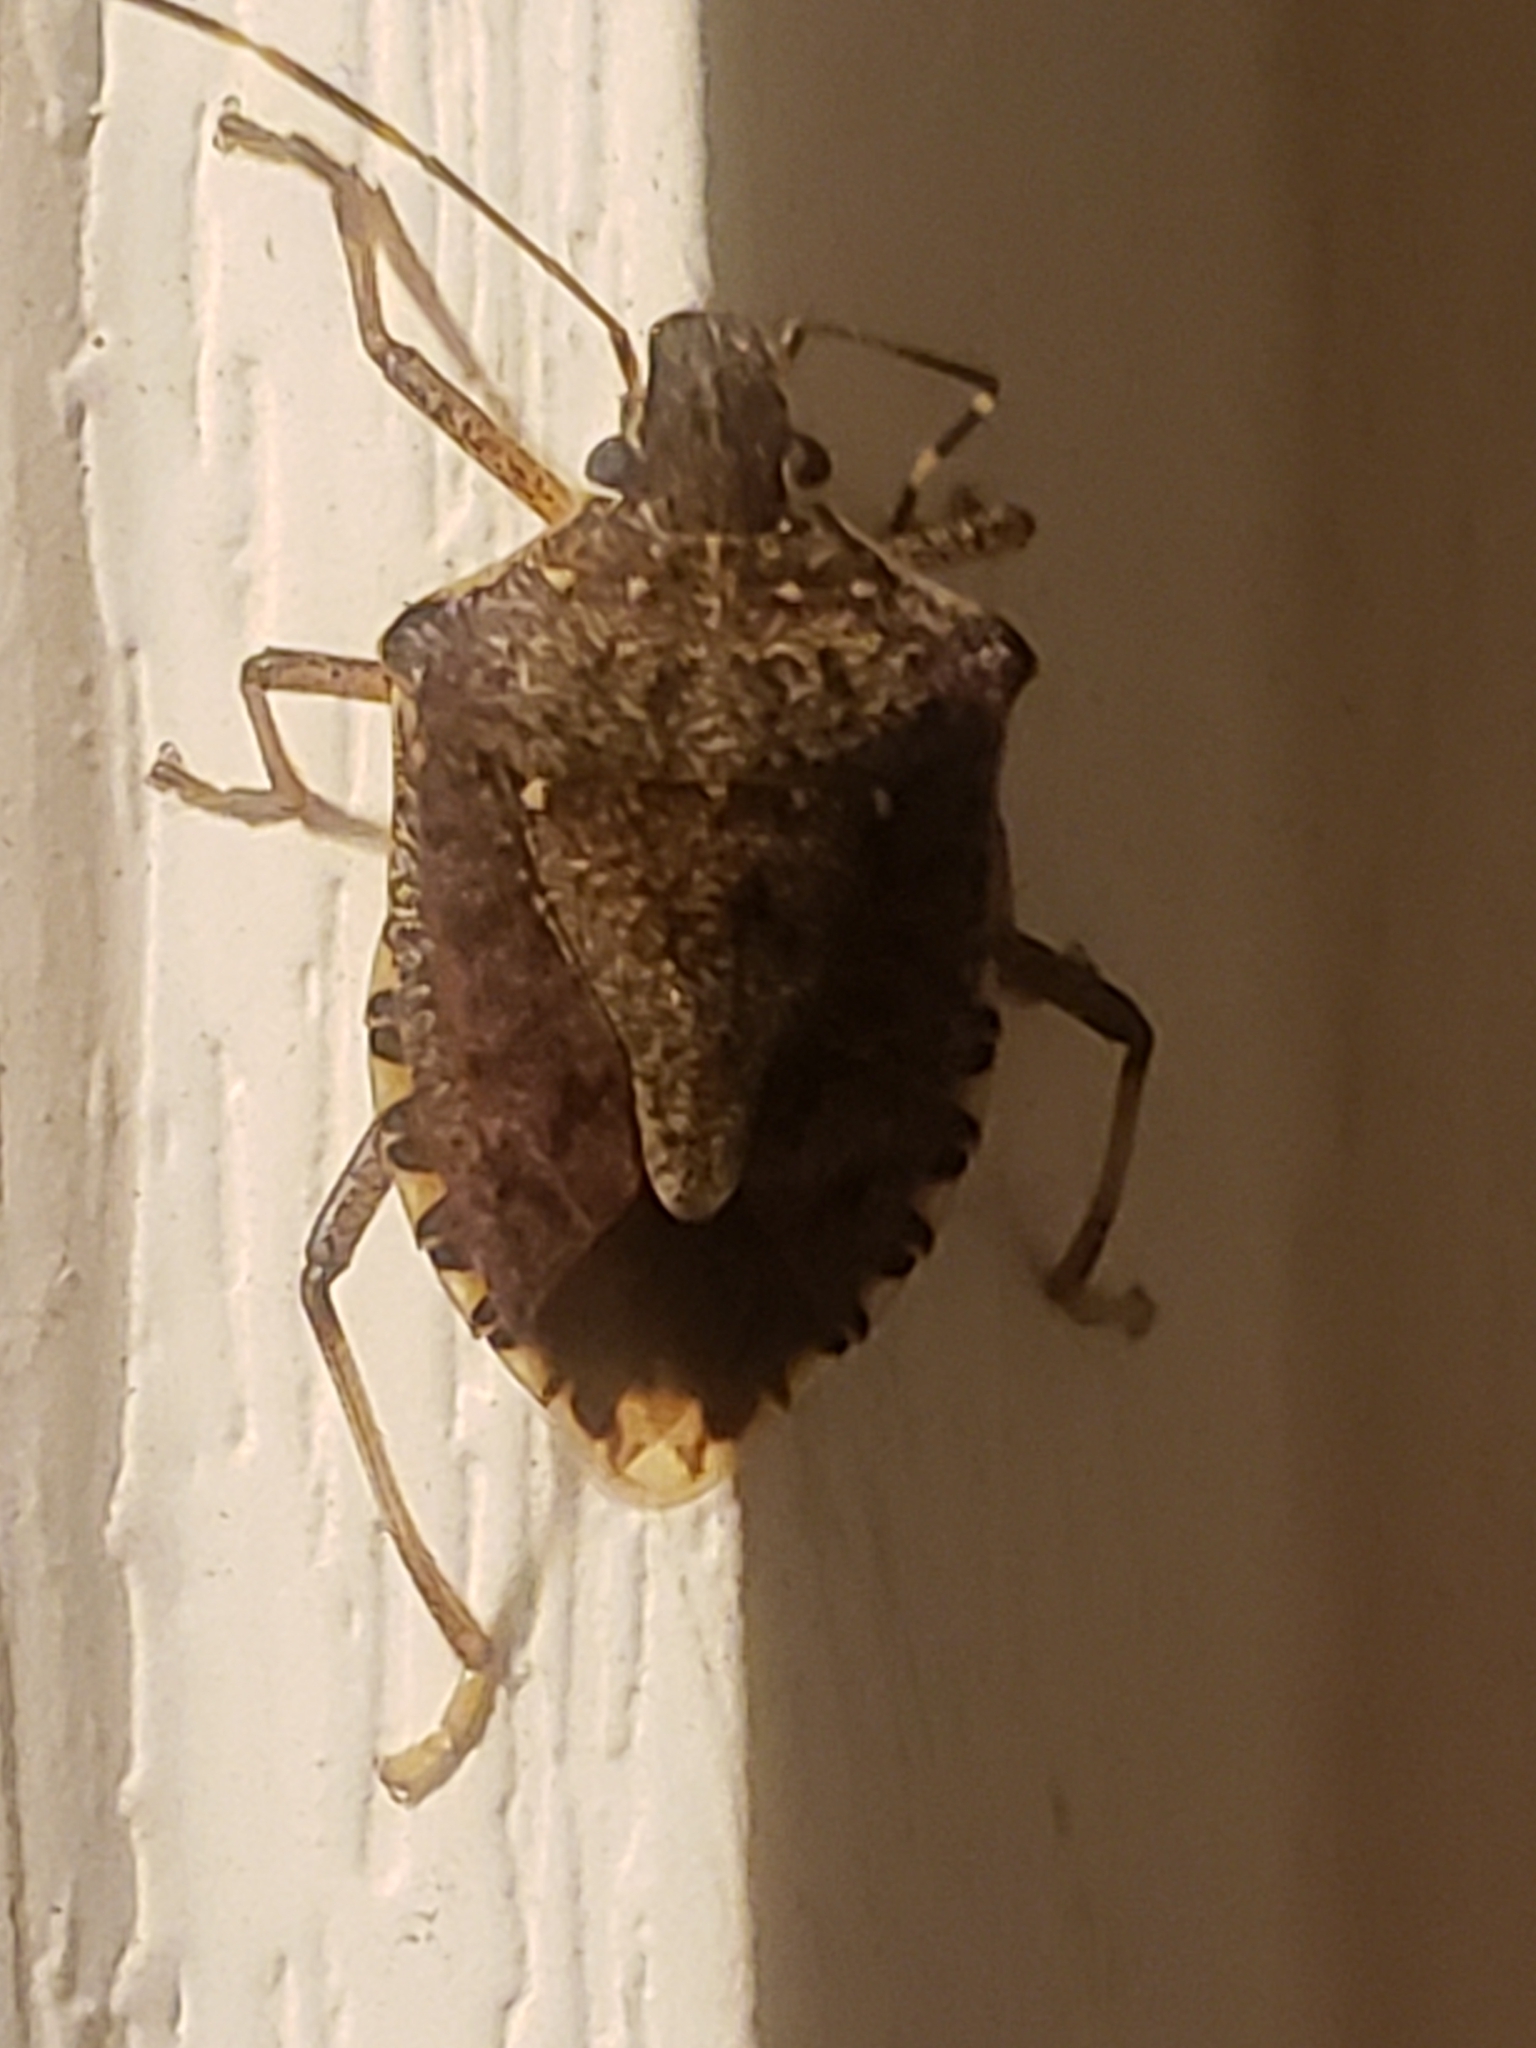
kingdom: Animalia
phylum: Arthropoda
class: Insecta
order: Hemiptera
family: Pentatomidae
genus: Halyomorpha
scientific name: Halyomorpha halys
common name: Brown marmorated stink bug
